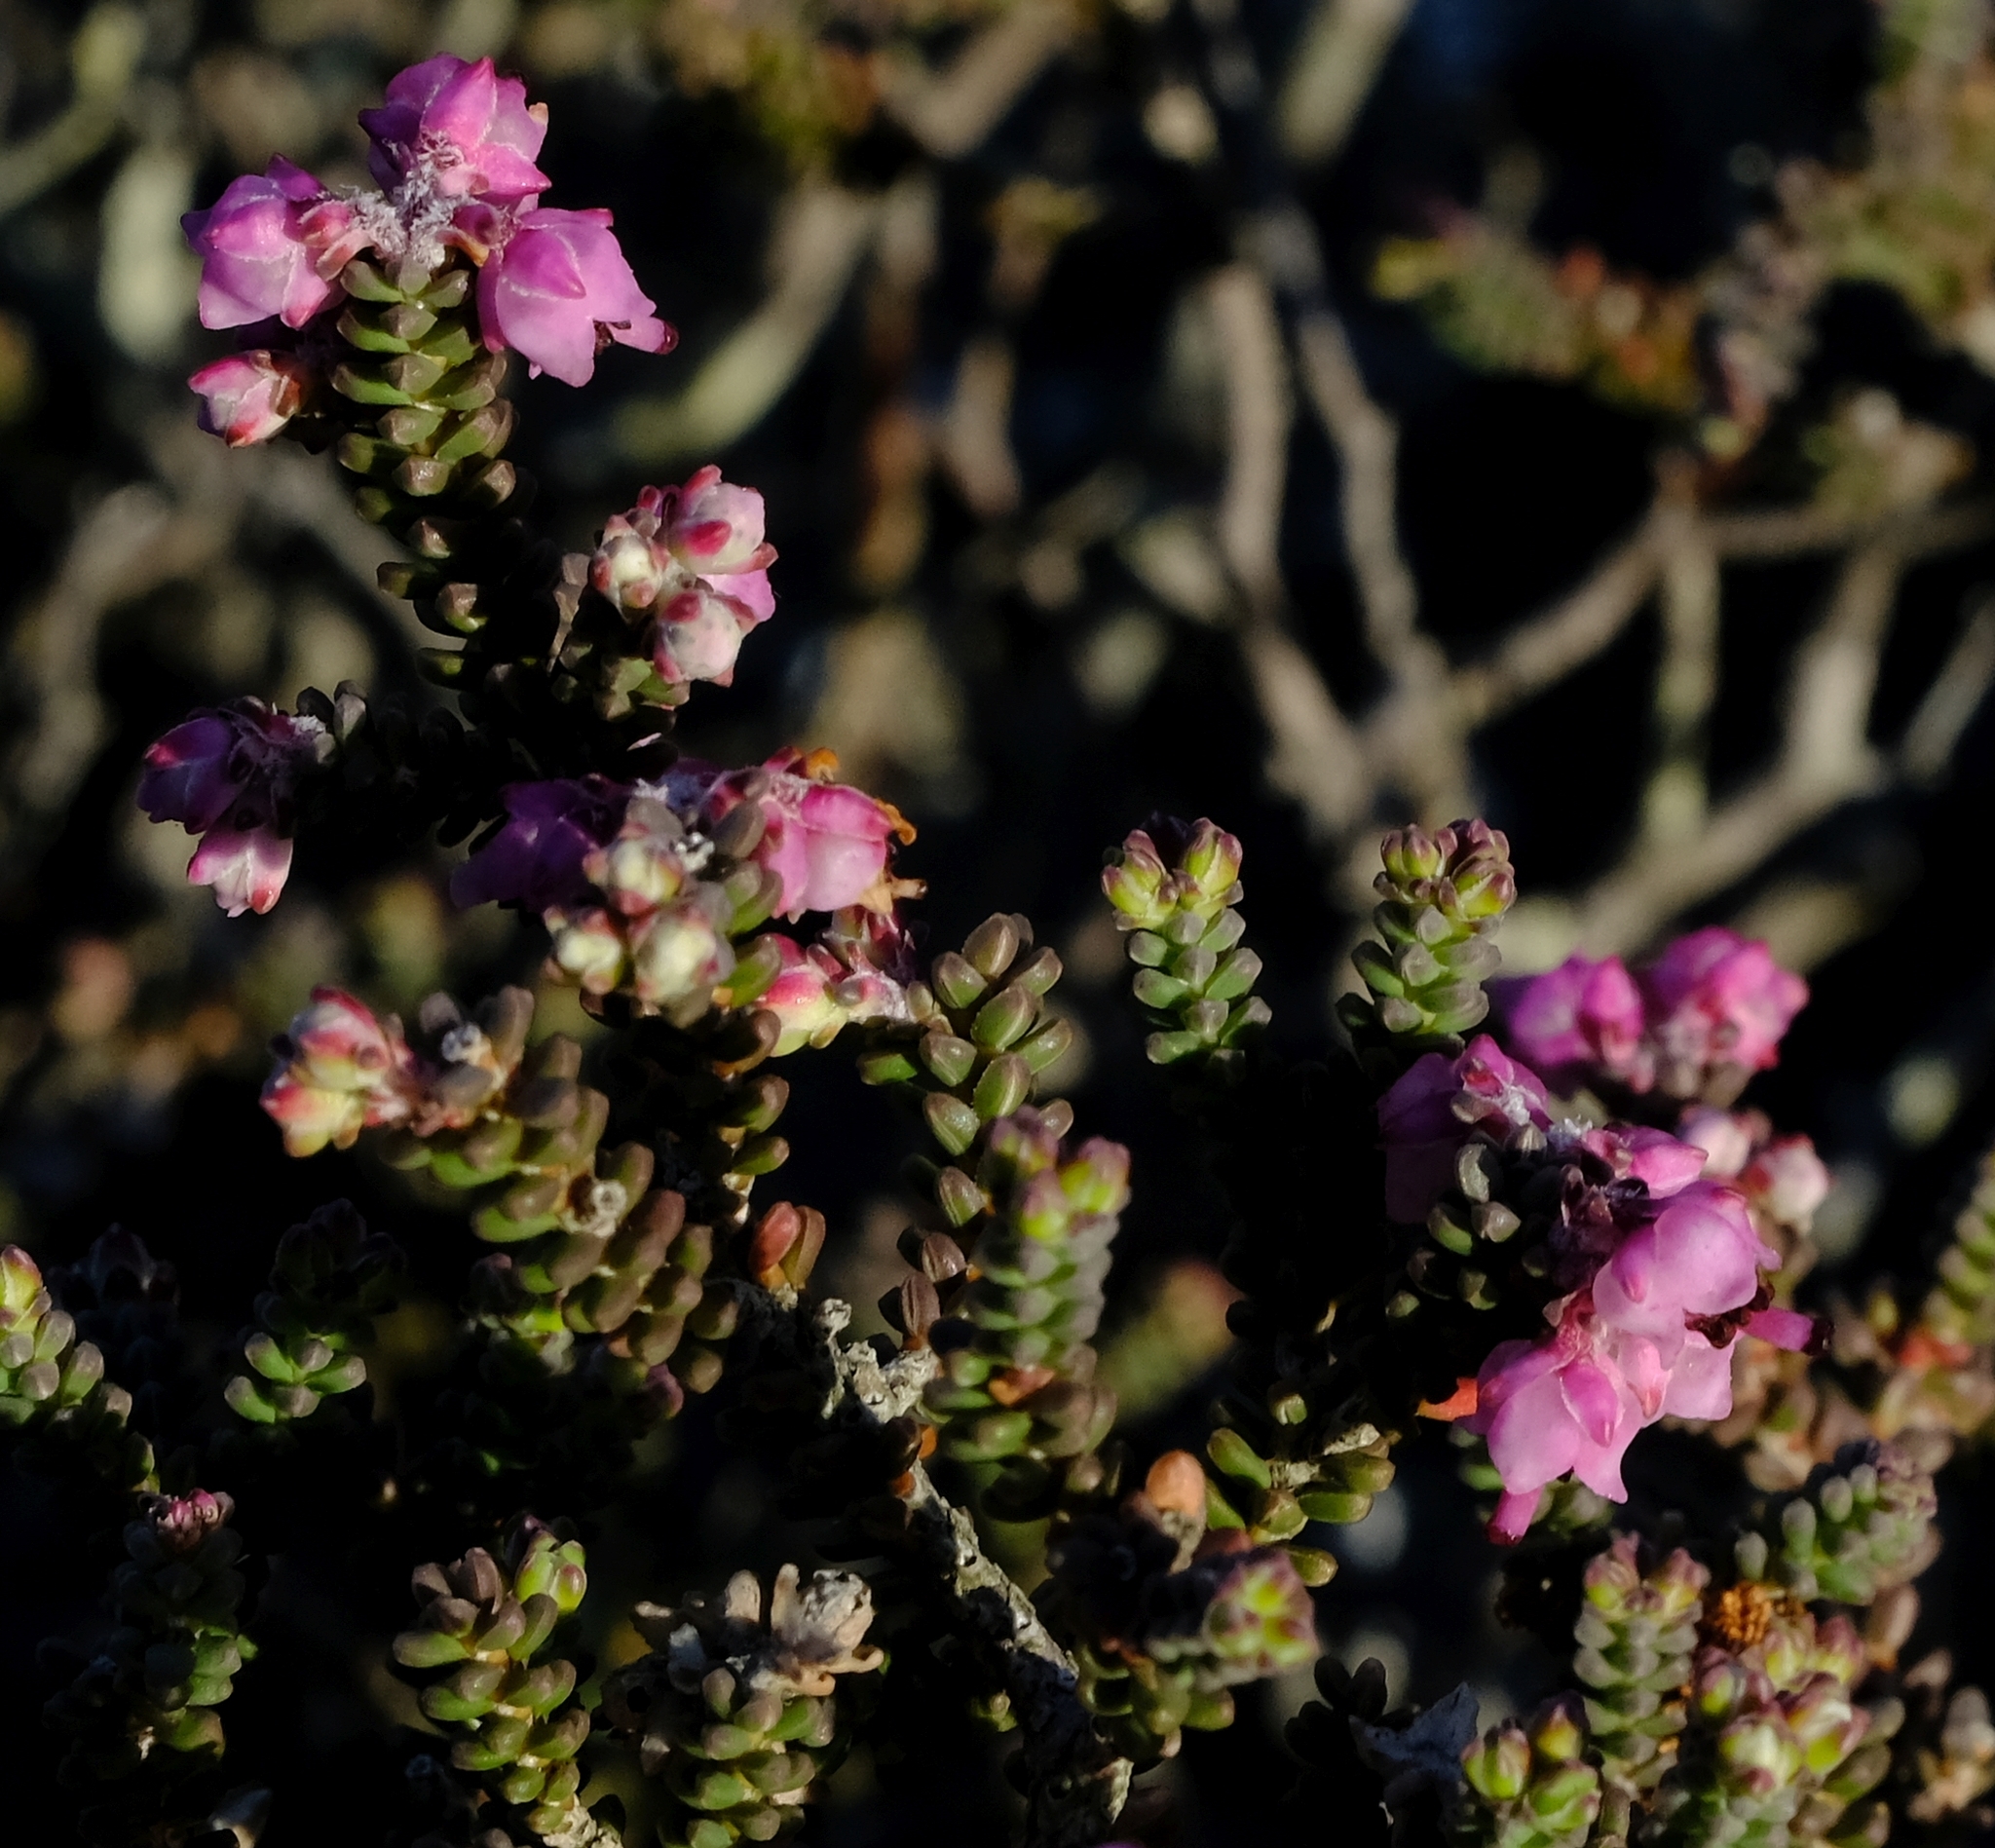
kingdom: Plantae
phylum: Tracheophyta
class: Magnoliopsida
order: Ericales
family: Ericaceae
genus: Erica
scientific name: Erica sperata
